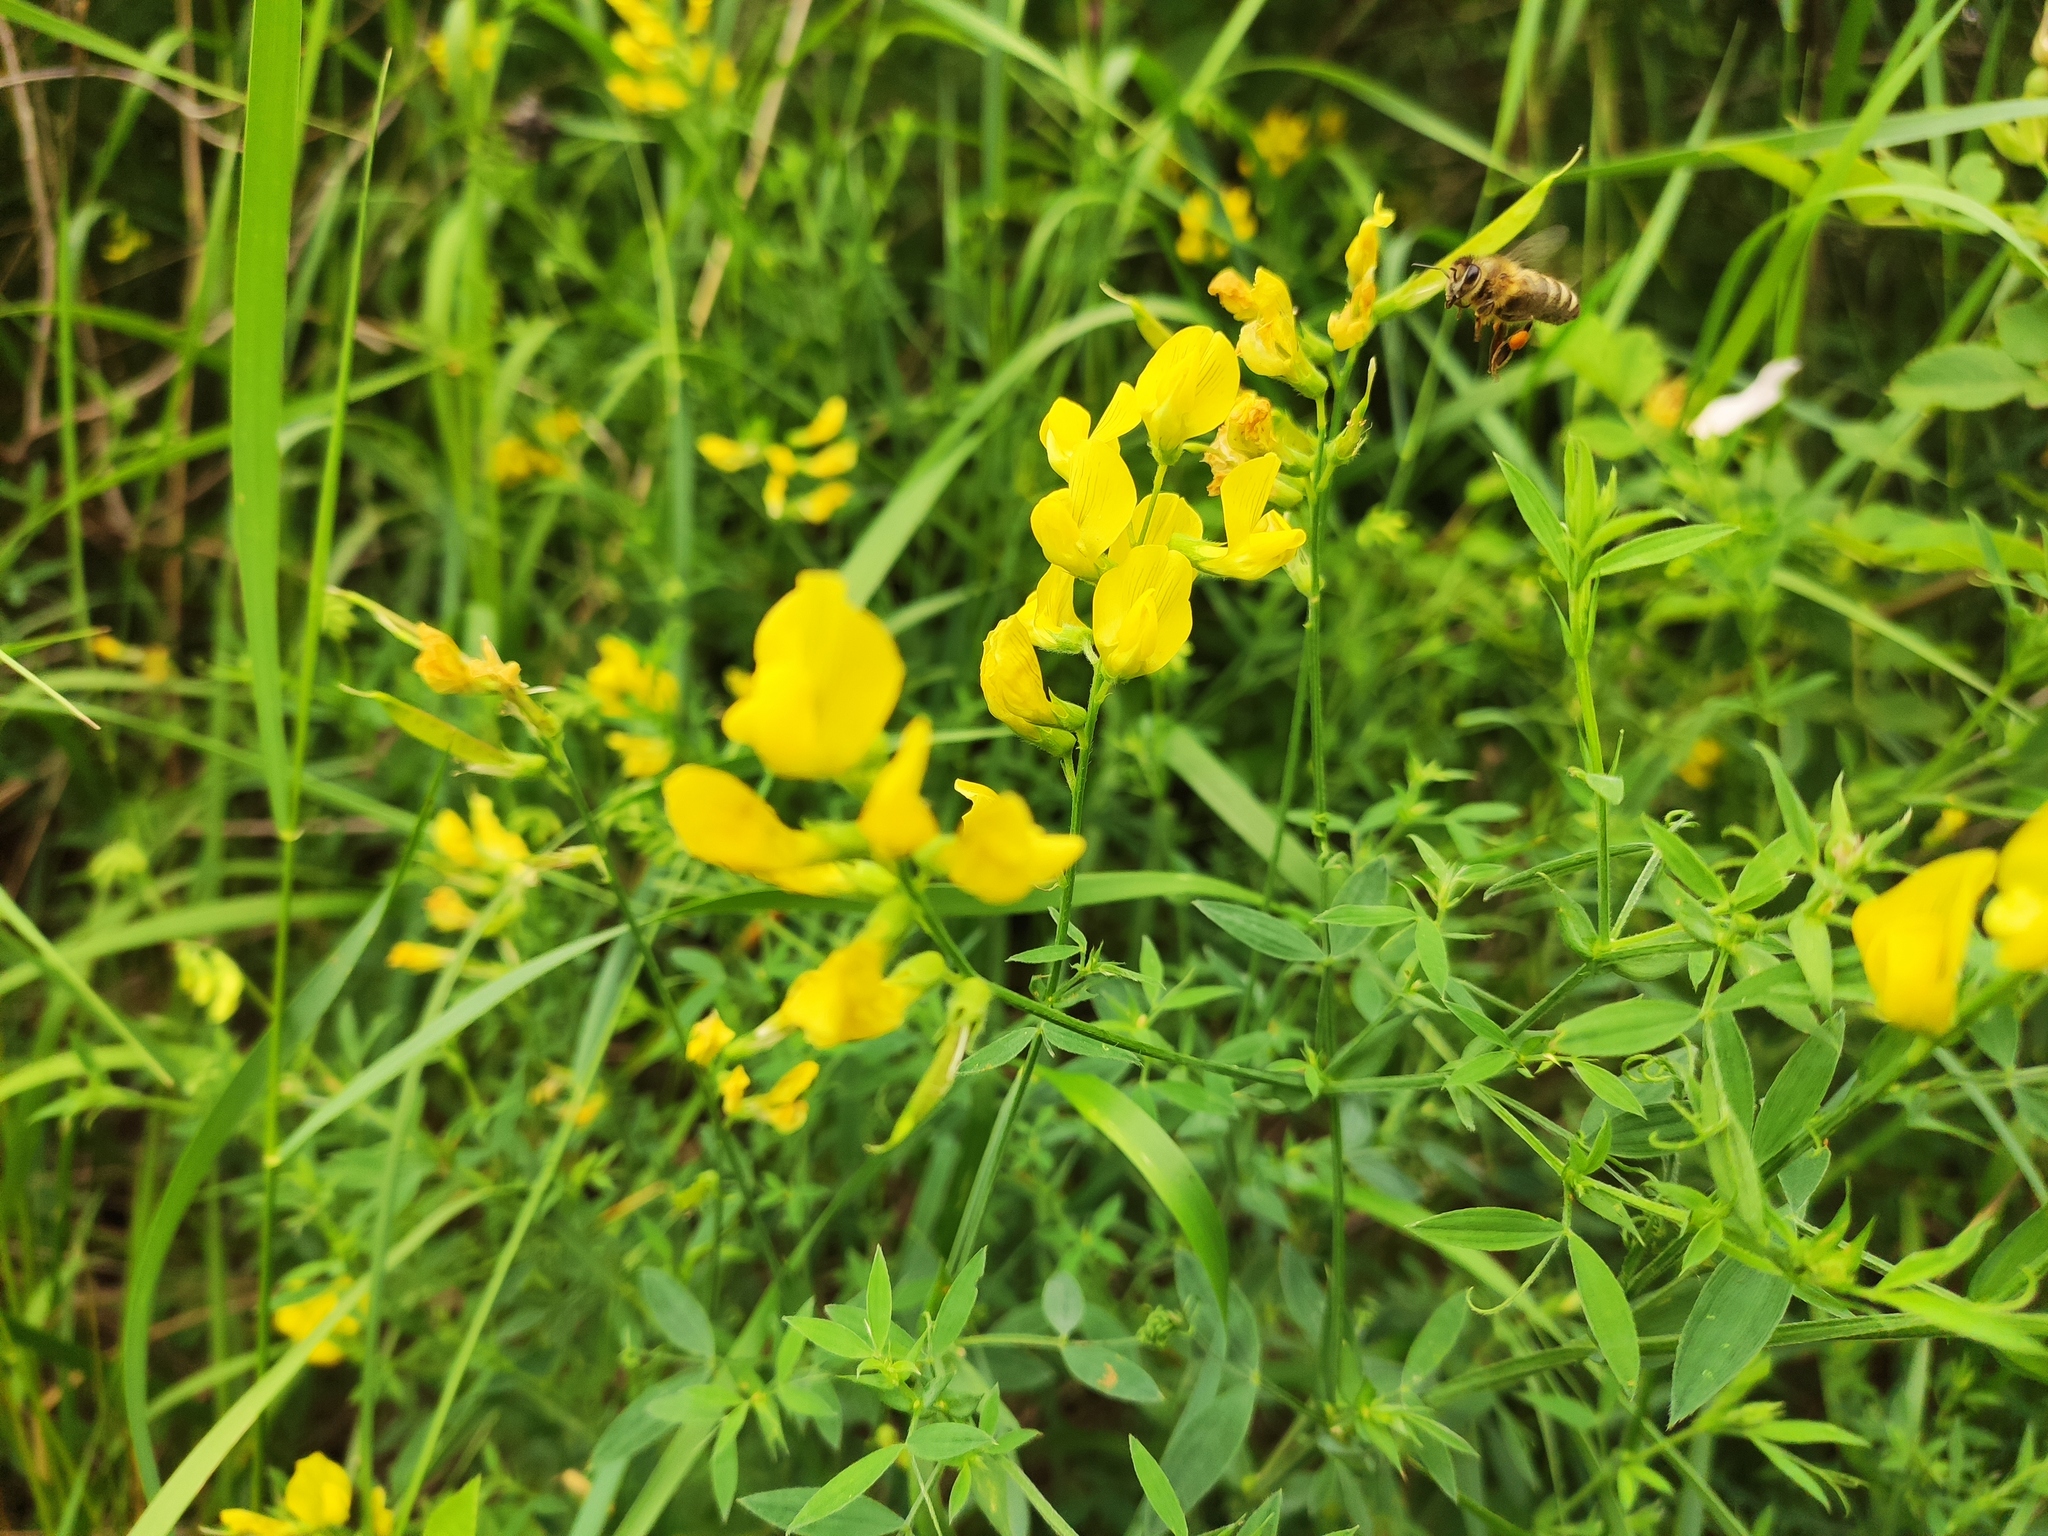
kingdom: Plantae
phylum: Tracheophyta
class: Magnoliopsida
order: Fabales
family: Fabaceae
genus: Lathyrus
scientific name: Lathyrus pratensis
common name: Meadow vetchling
